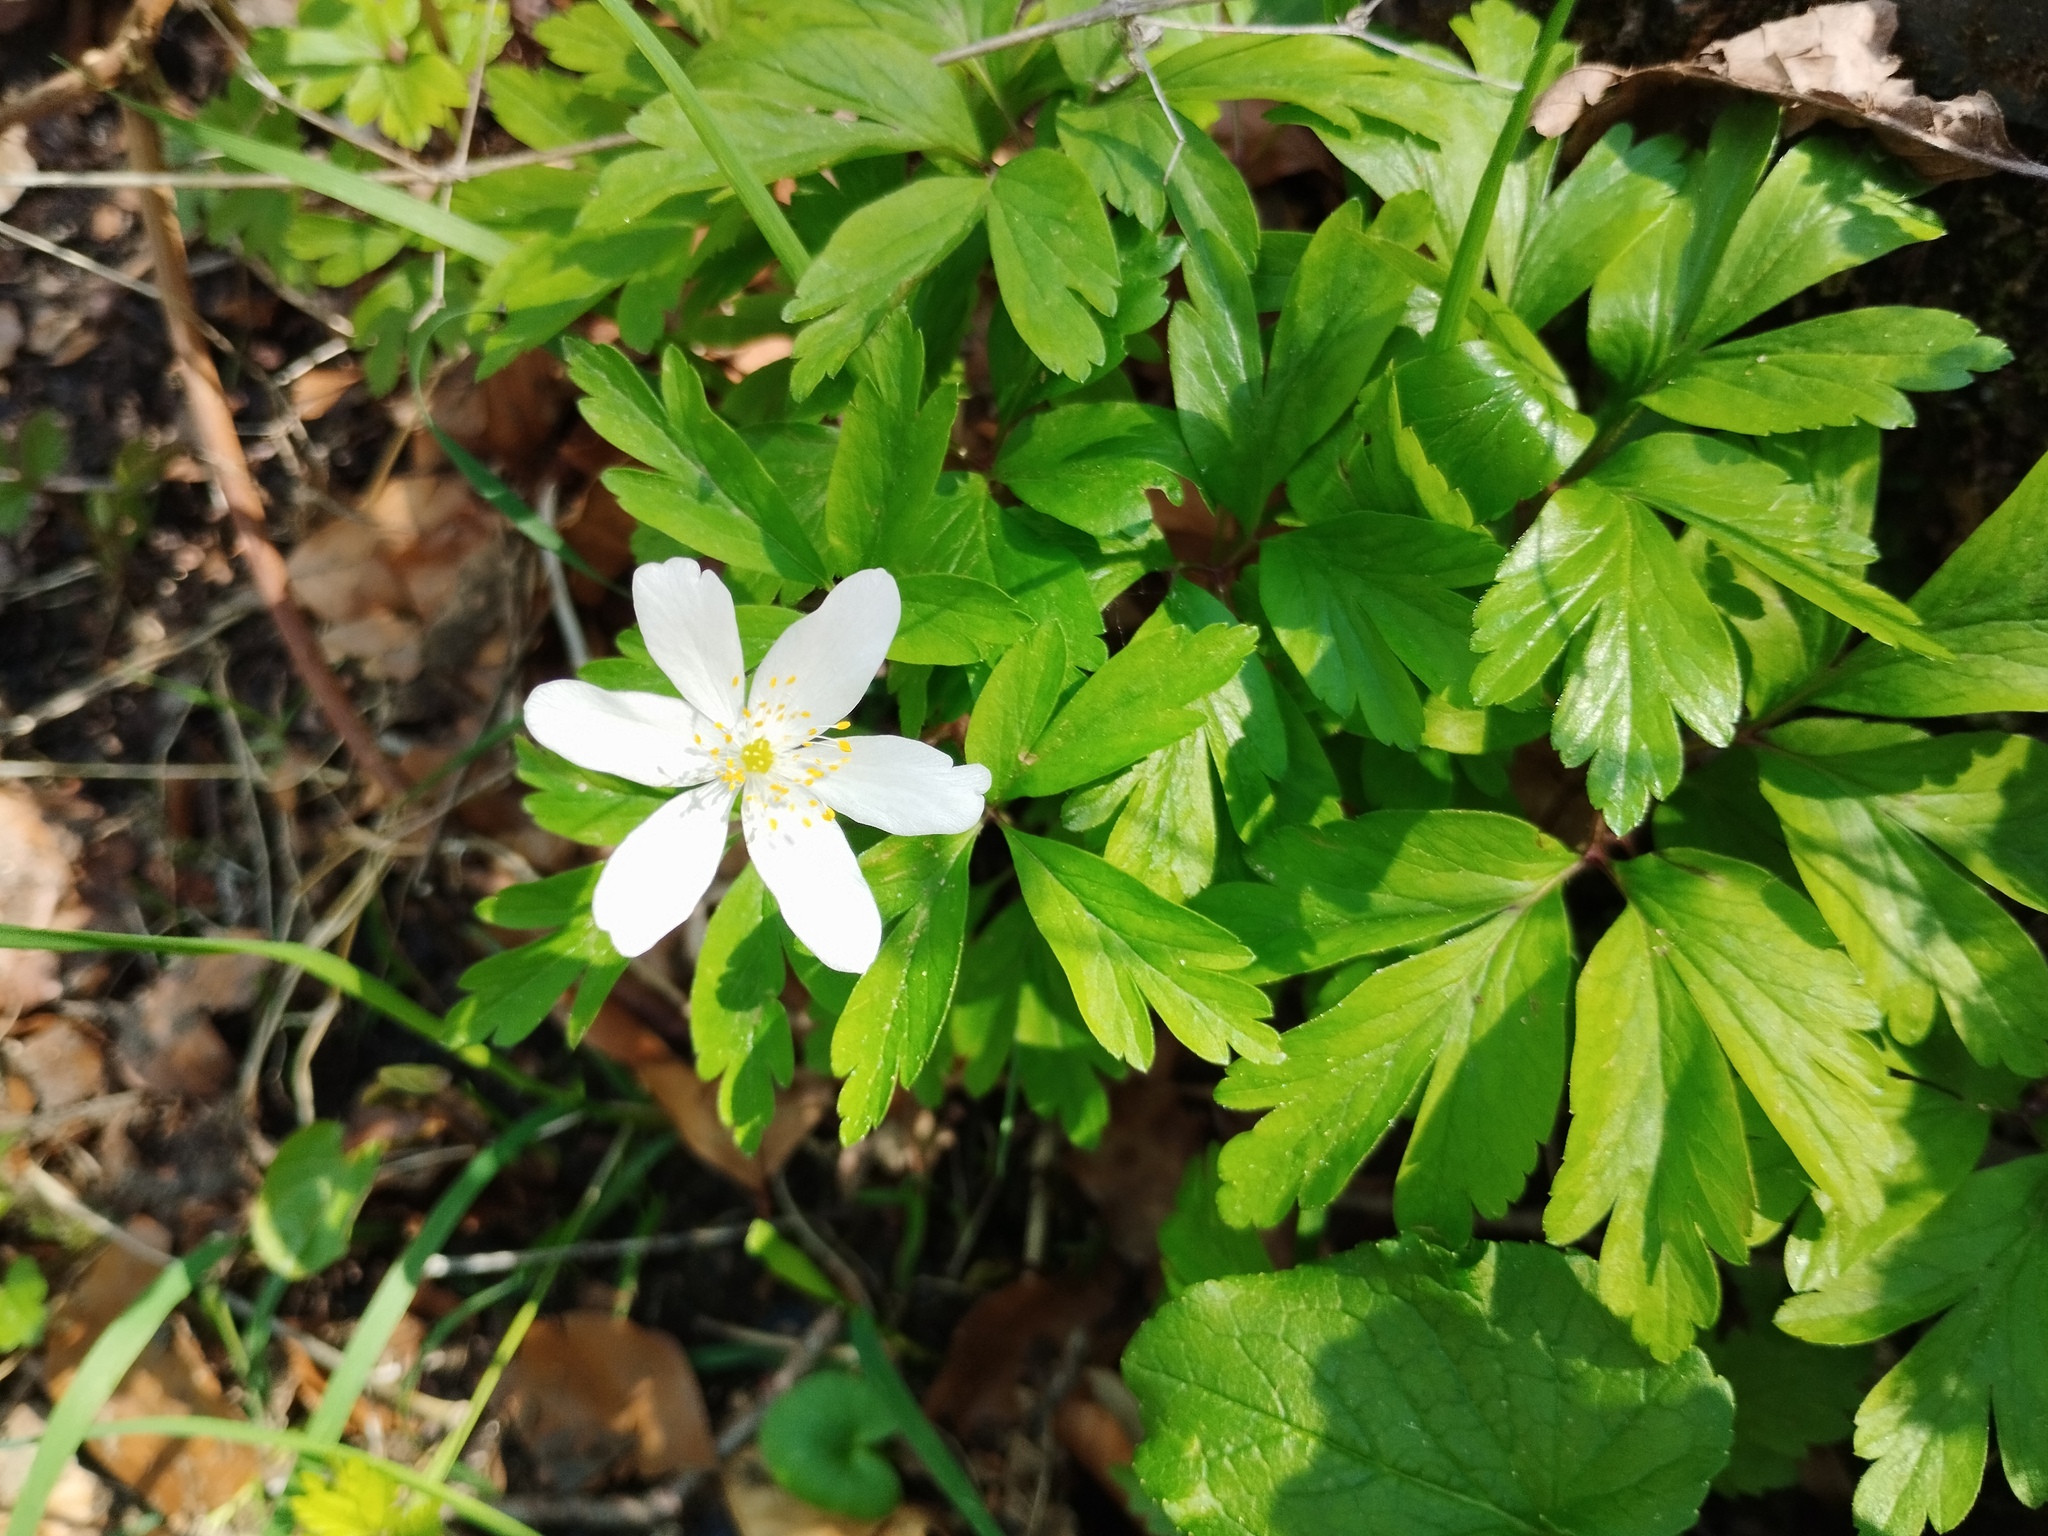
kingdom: Plantae
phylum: Tracheophyta
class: Magnoliopsida
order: Ranunculales
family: Ranunculaceae
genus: Anemone
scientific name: Anemone nemorosa
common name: Wood anemone
